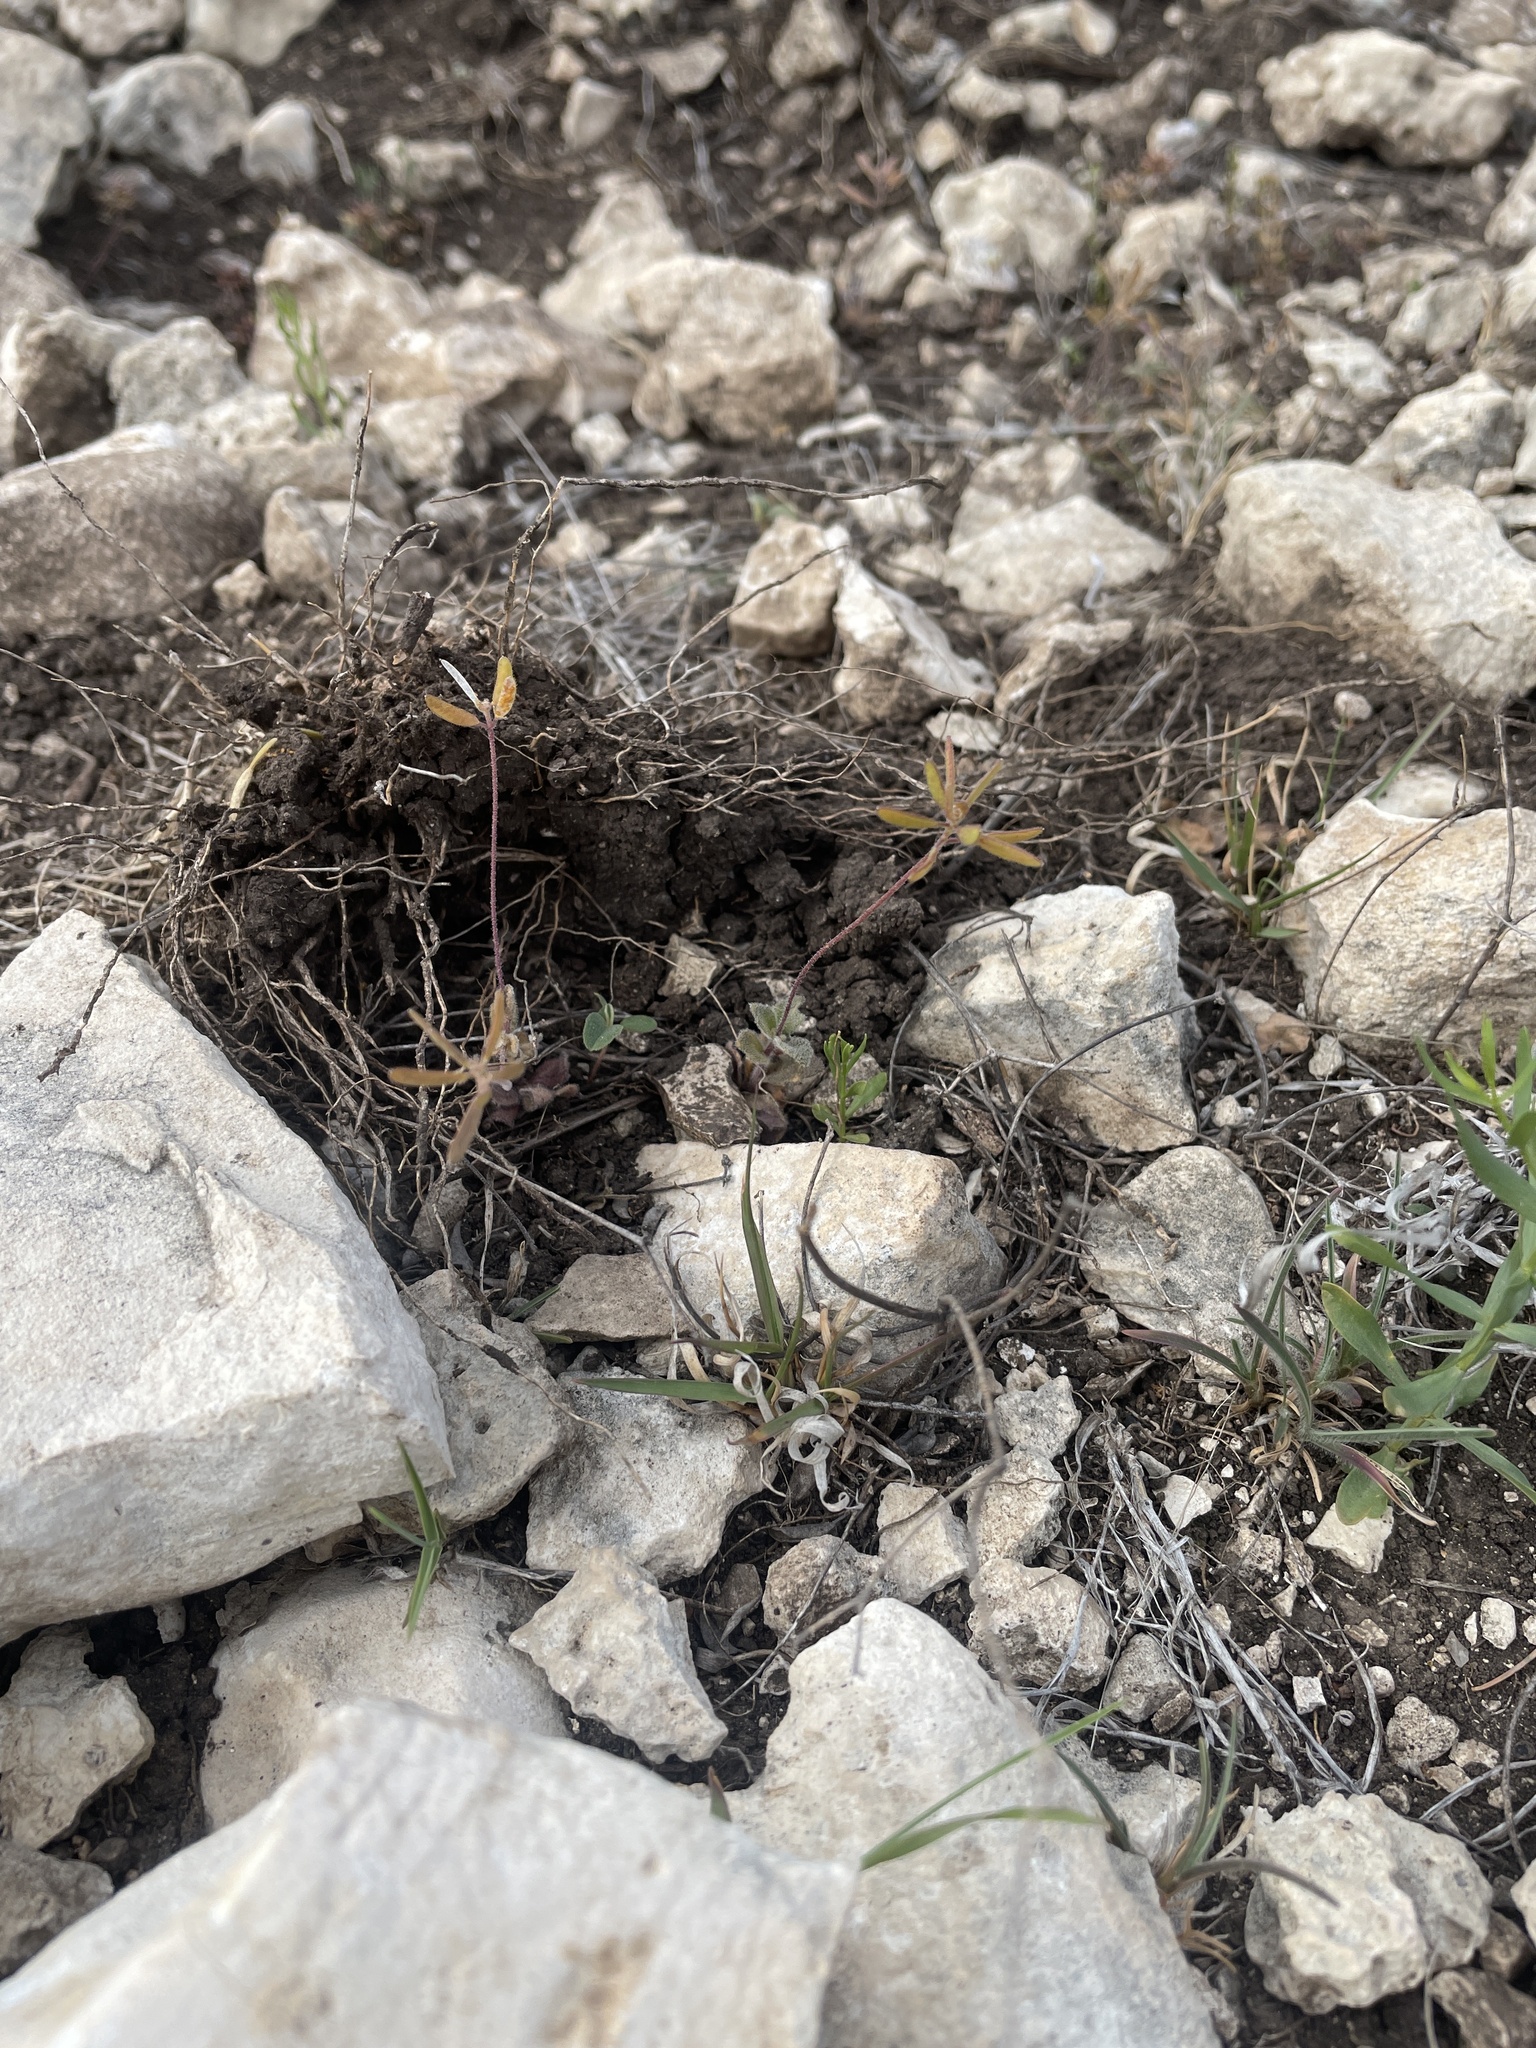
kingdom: Plantae
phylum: Tracheophyta
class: Magnoliopsida
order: Brassicales
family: Brassicaceae
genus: Tomostima
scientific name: Tomostima cuneifolia
